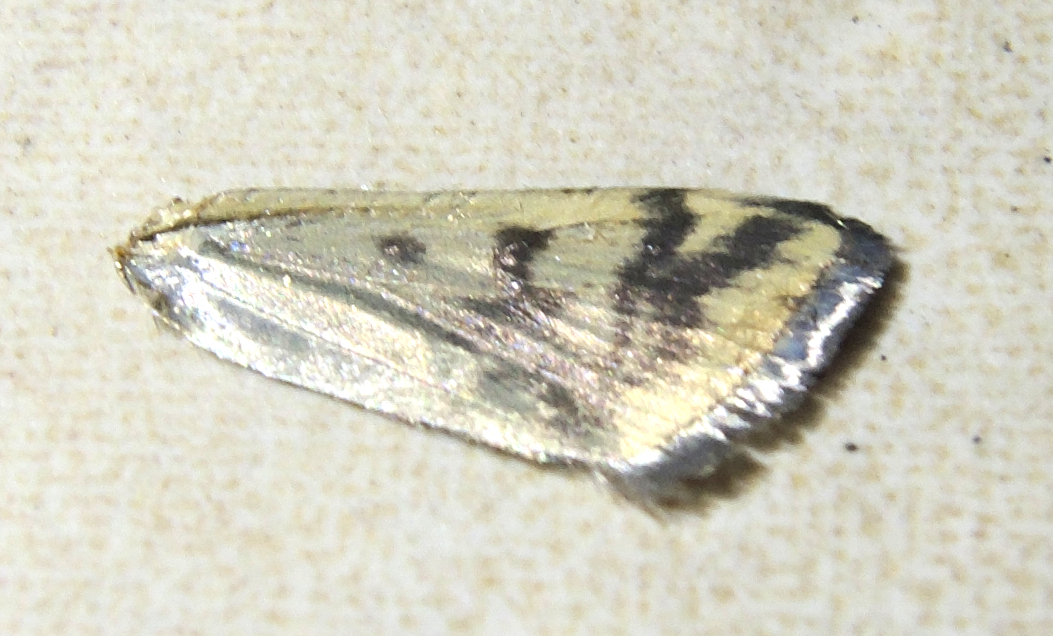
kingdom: Animalia
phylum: Arthropoda
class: Insecta
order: Lepidoptera
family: Crambidae
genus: Loxostege
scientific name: Loxostege sticticalis
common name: Crambid moth
